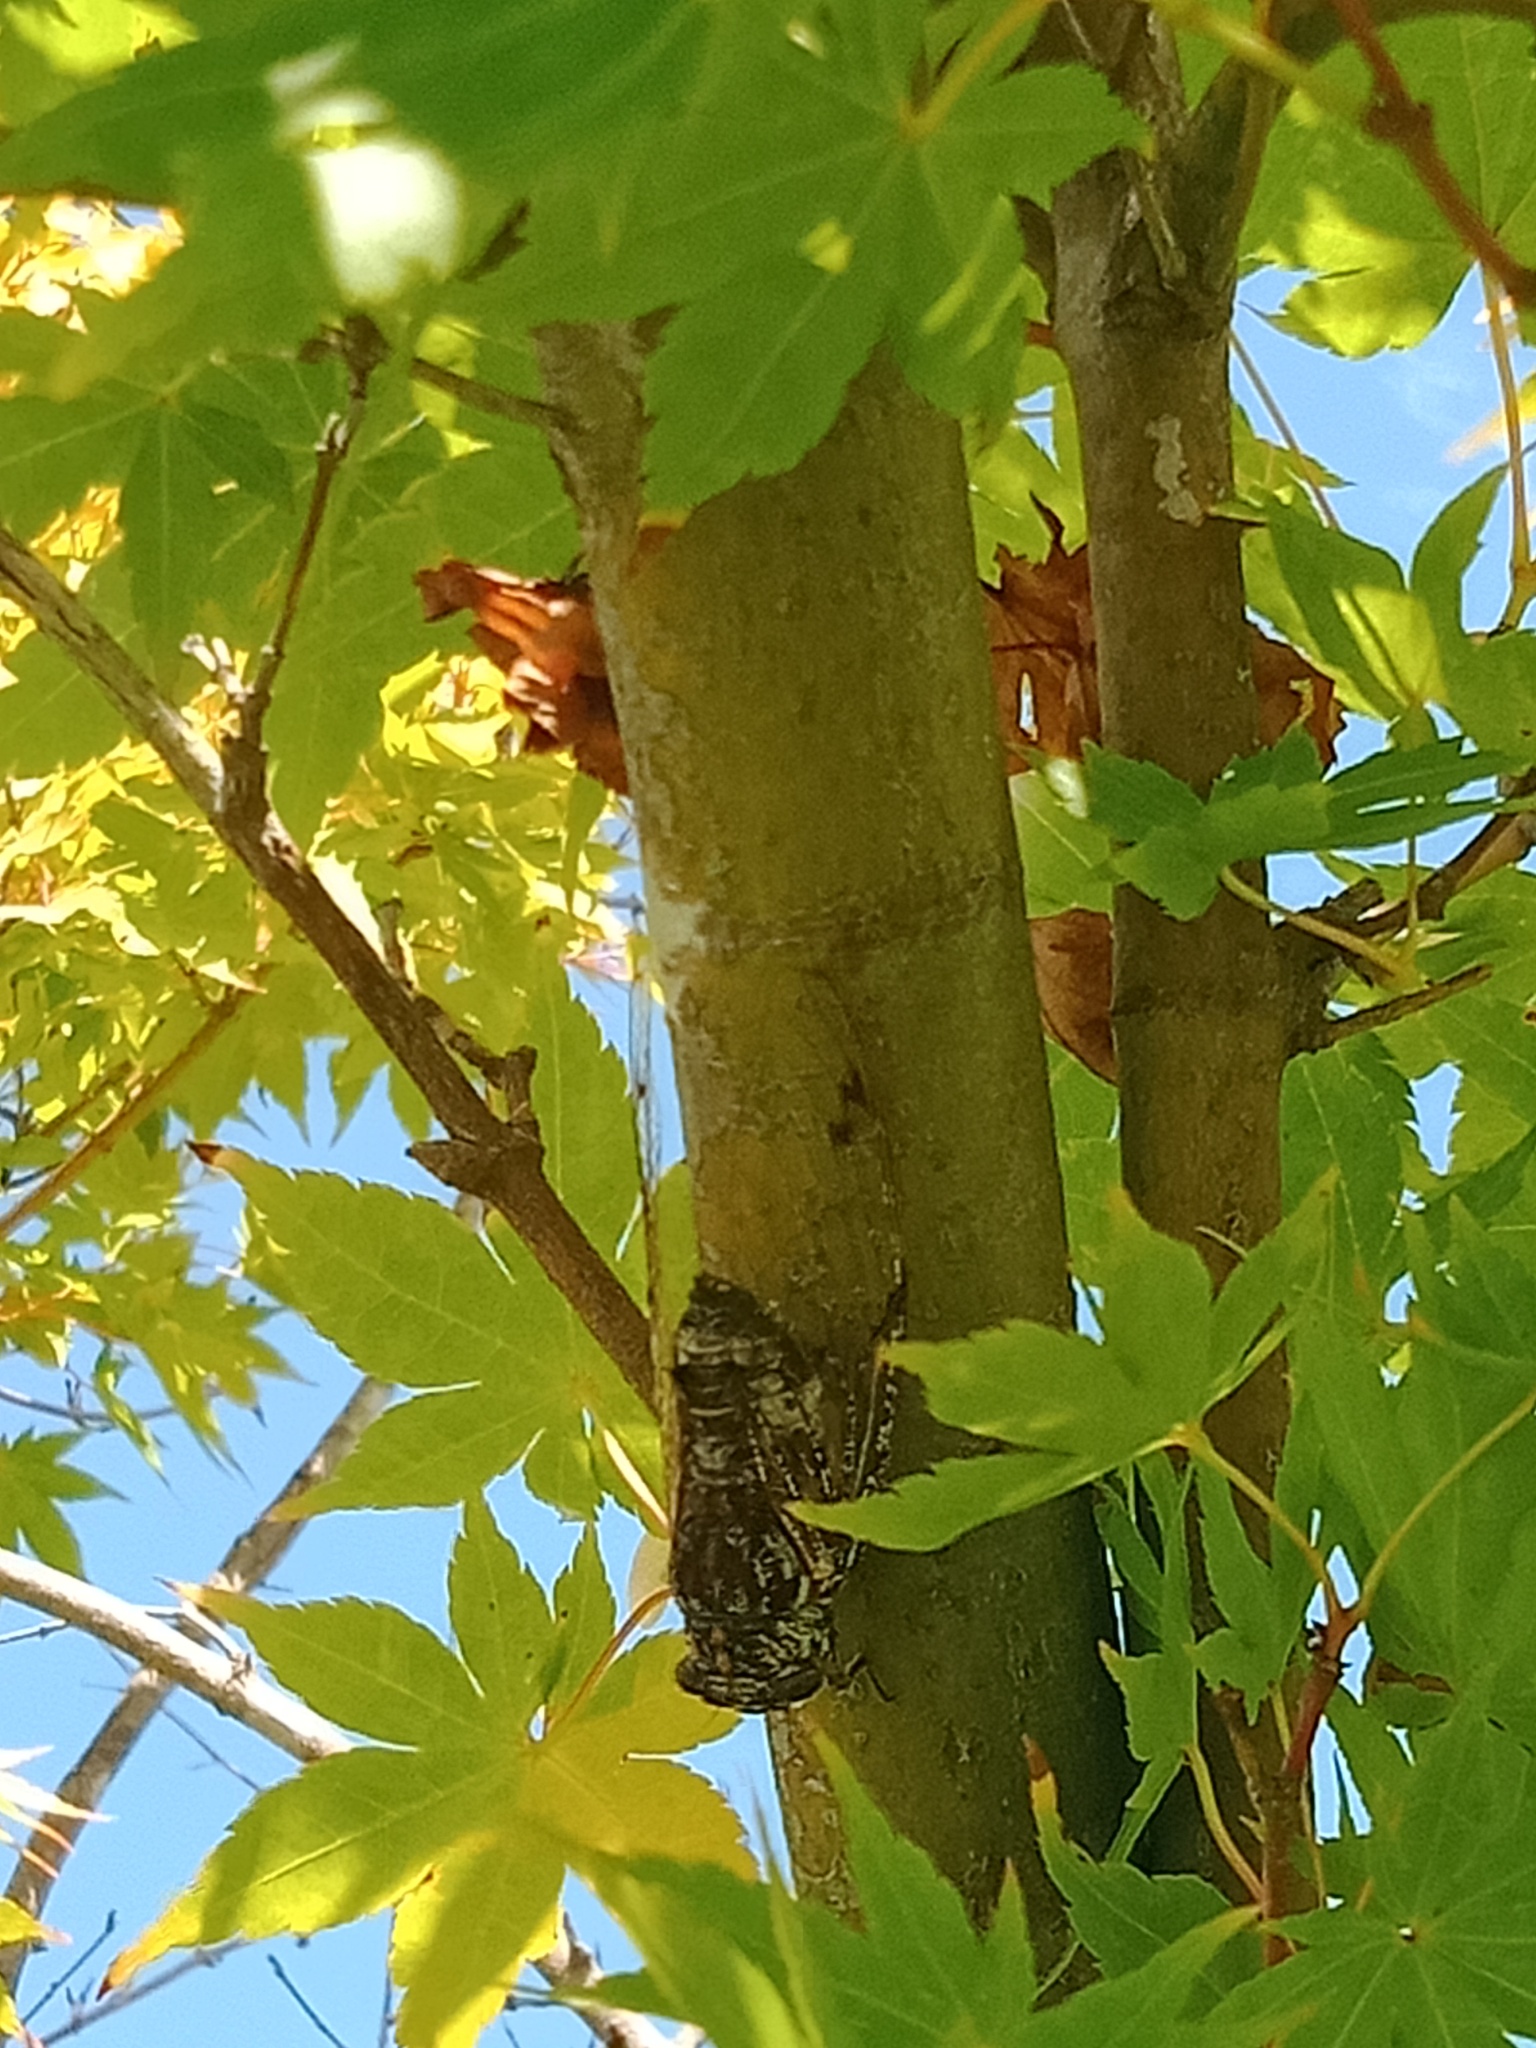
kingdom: Animalia
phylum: Arthropoda
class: Insecta
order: Hemiptera
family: Cicadidae
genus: Aleeta
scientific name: Aleeta curvicosta
